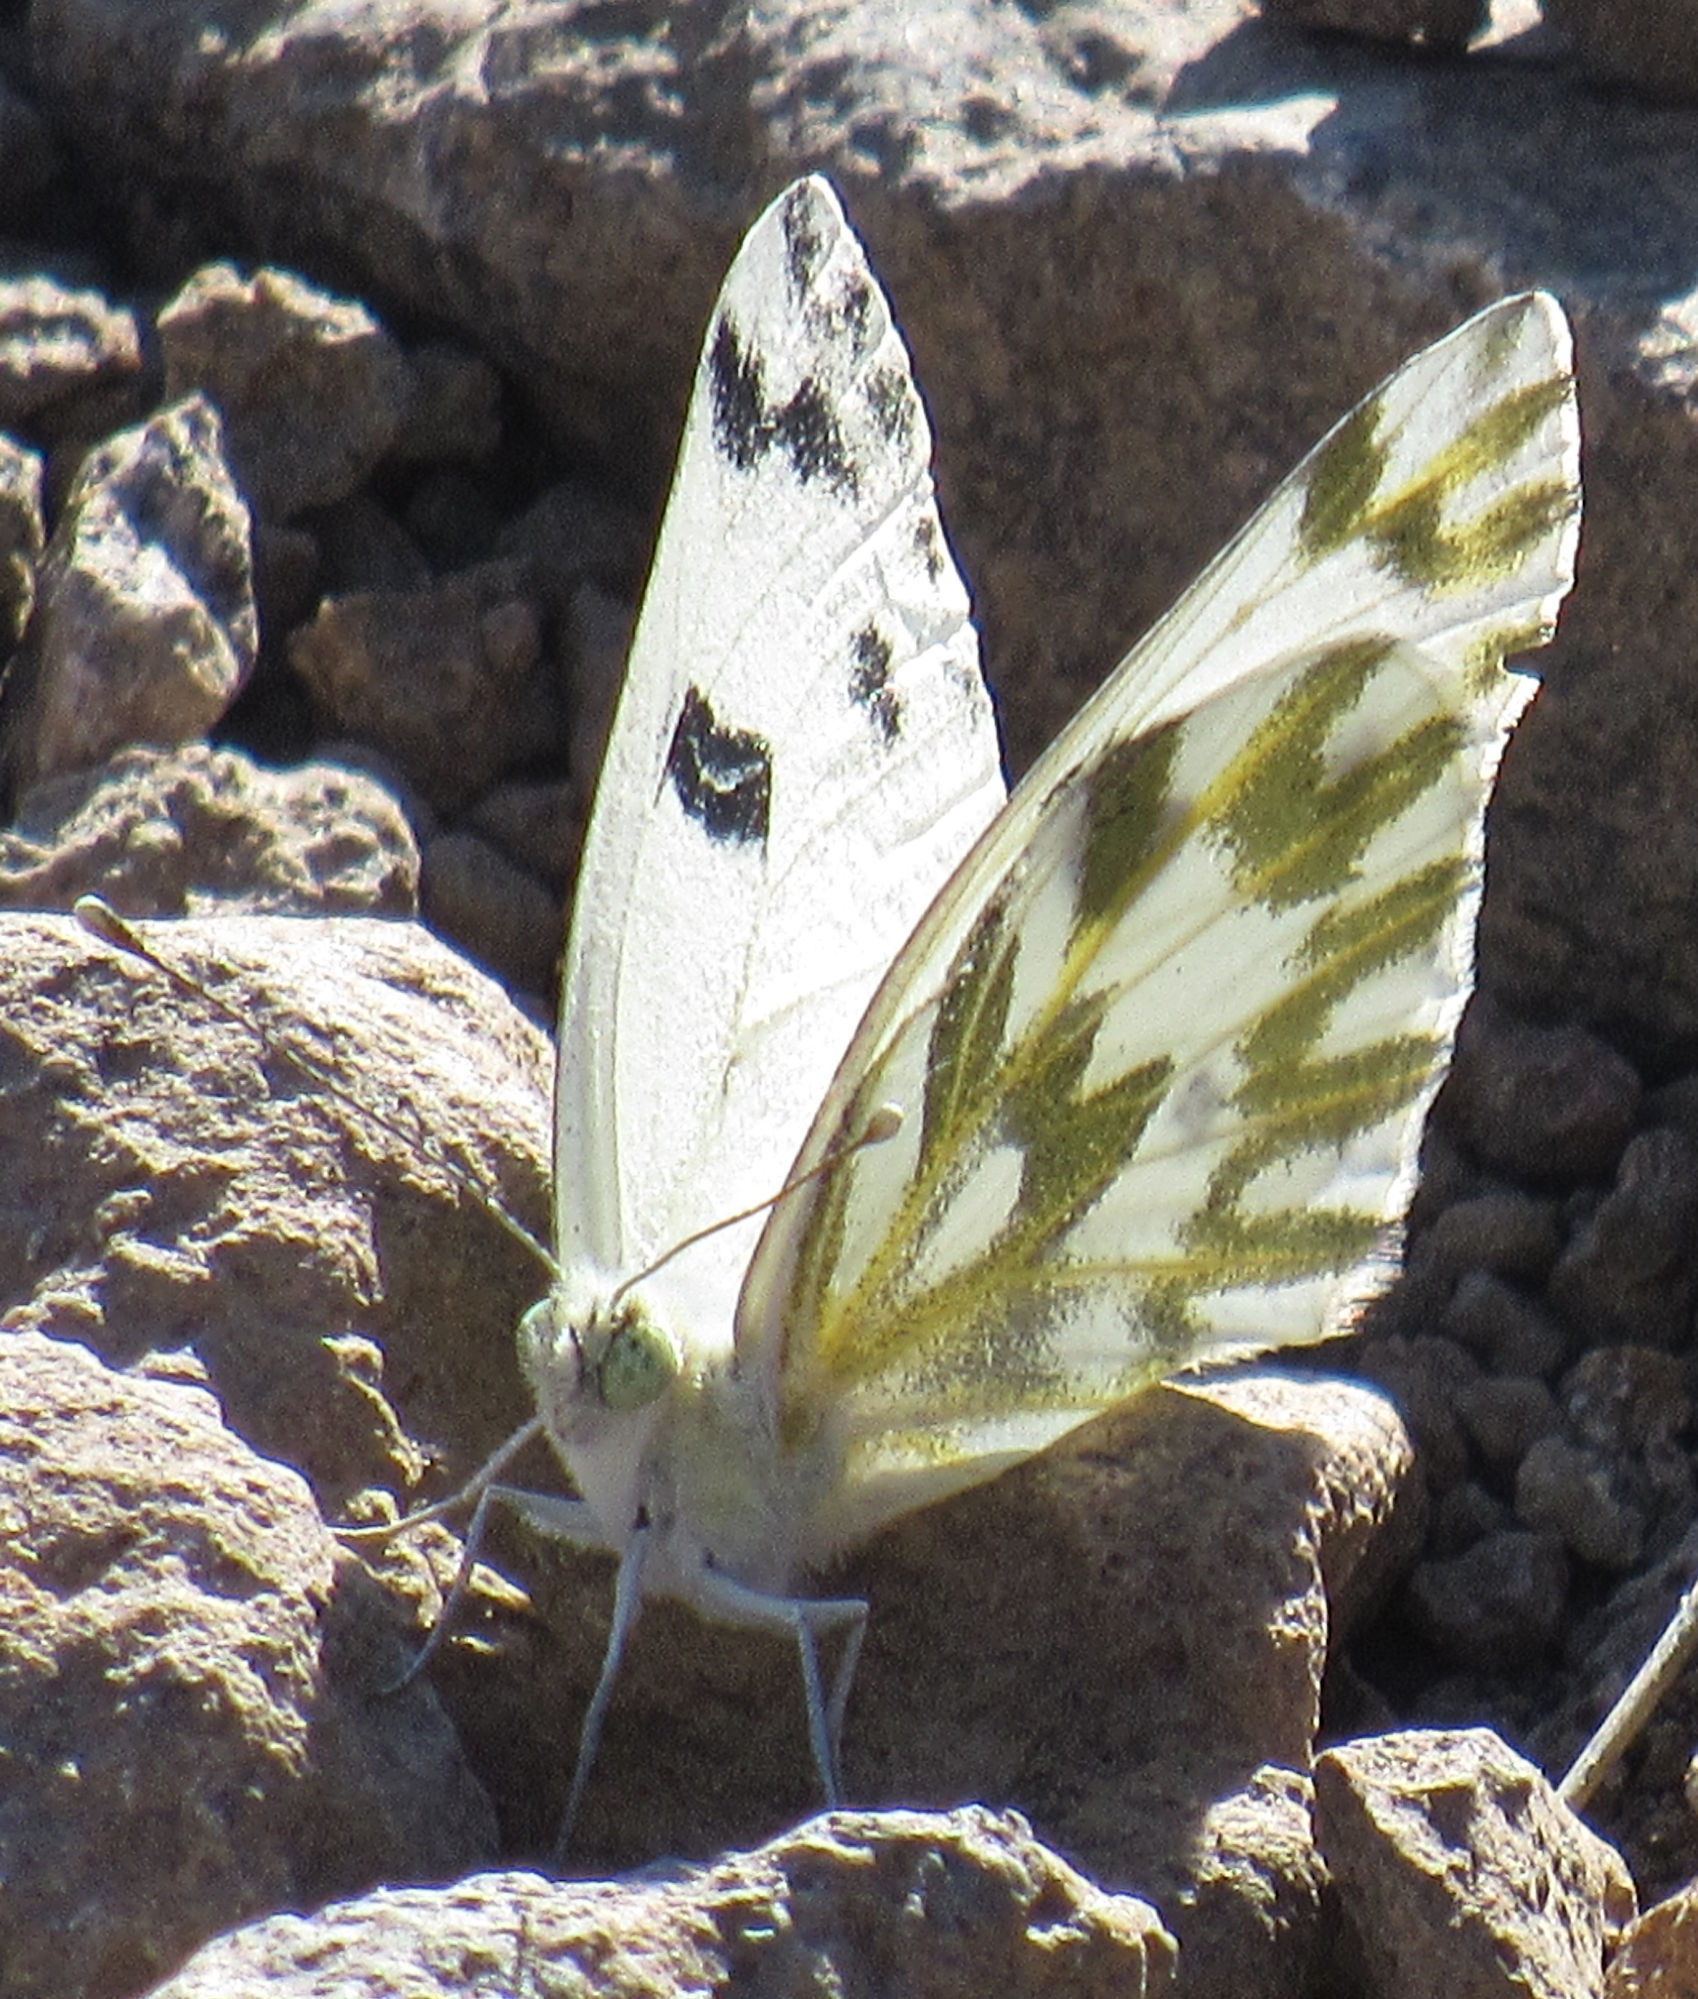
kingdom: Animalia
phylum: Arthropoda
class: Insecta
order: Lepidoptera
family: Pieridae
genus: Pontia
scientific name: Pontia beckerii
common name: Becker's white
